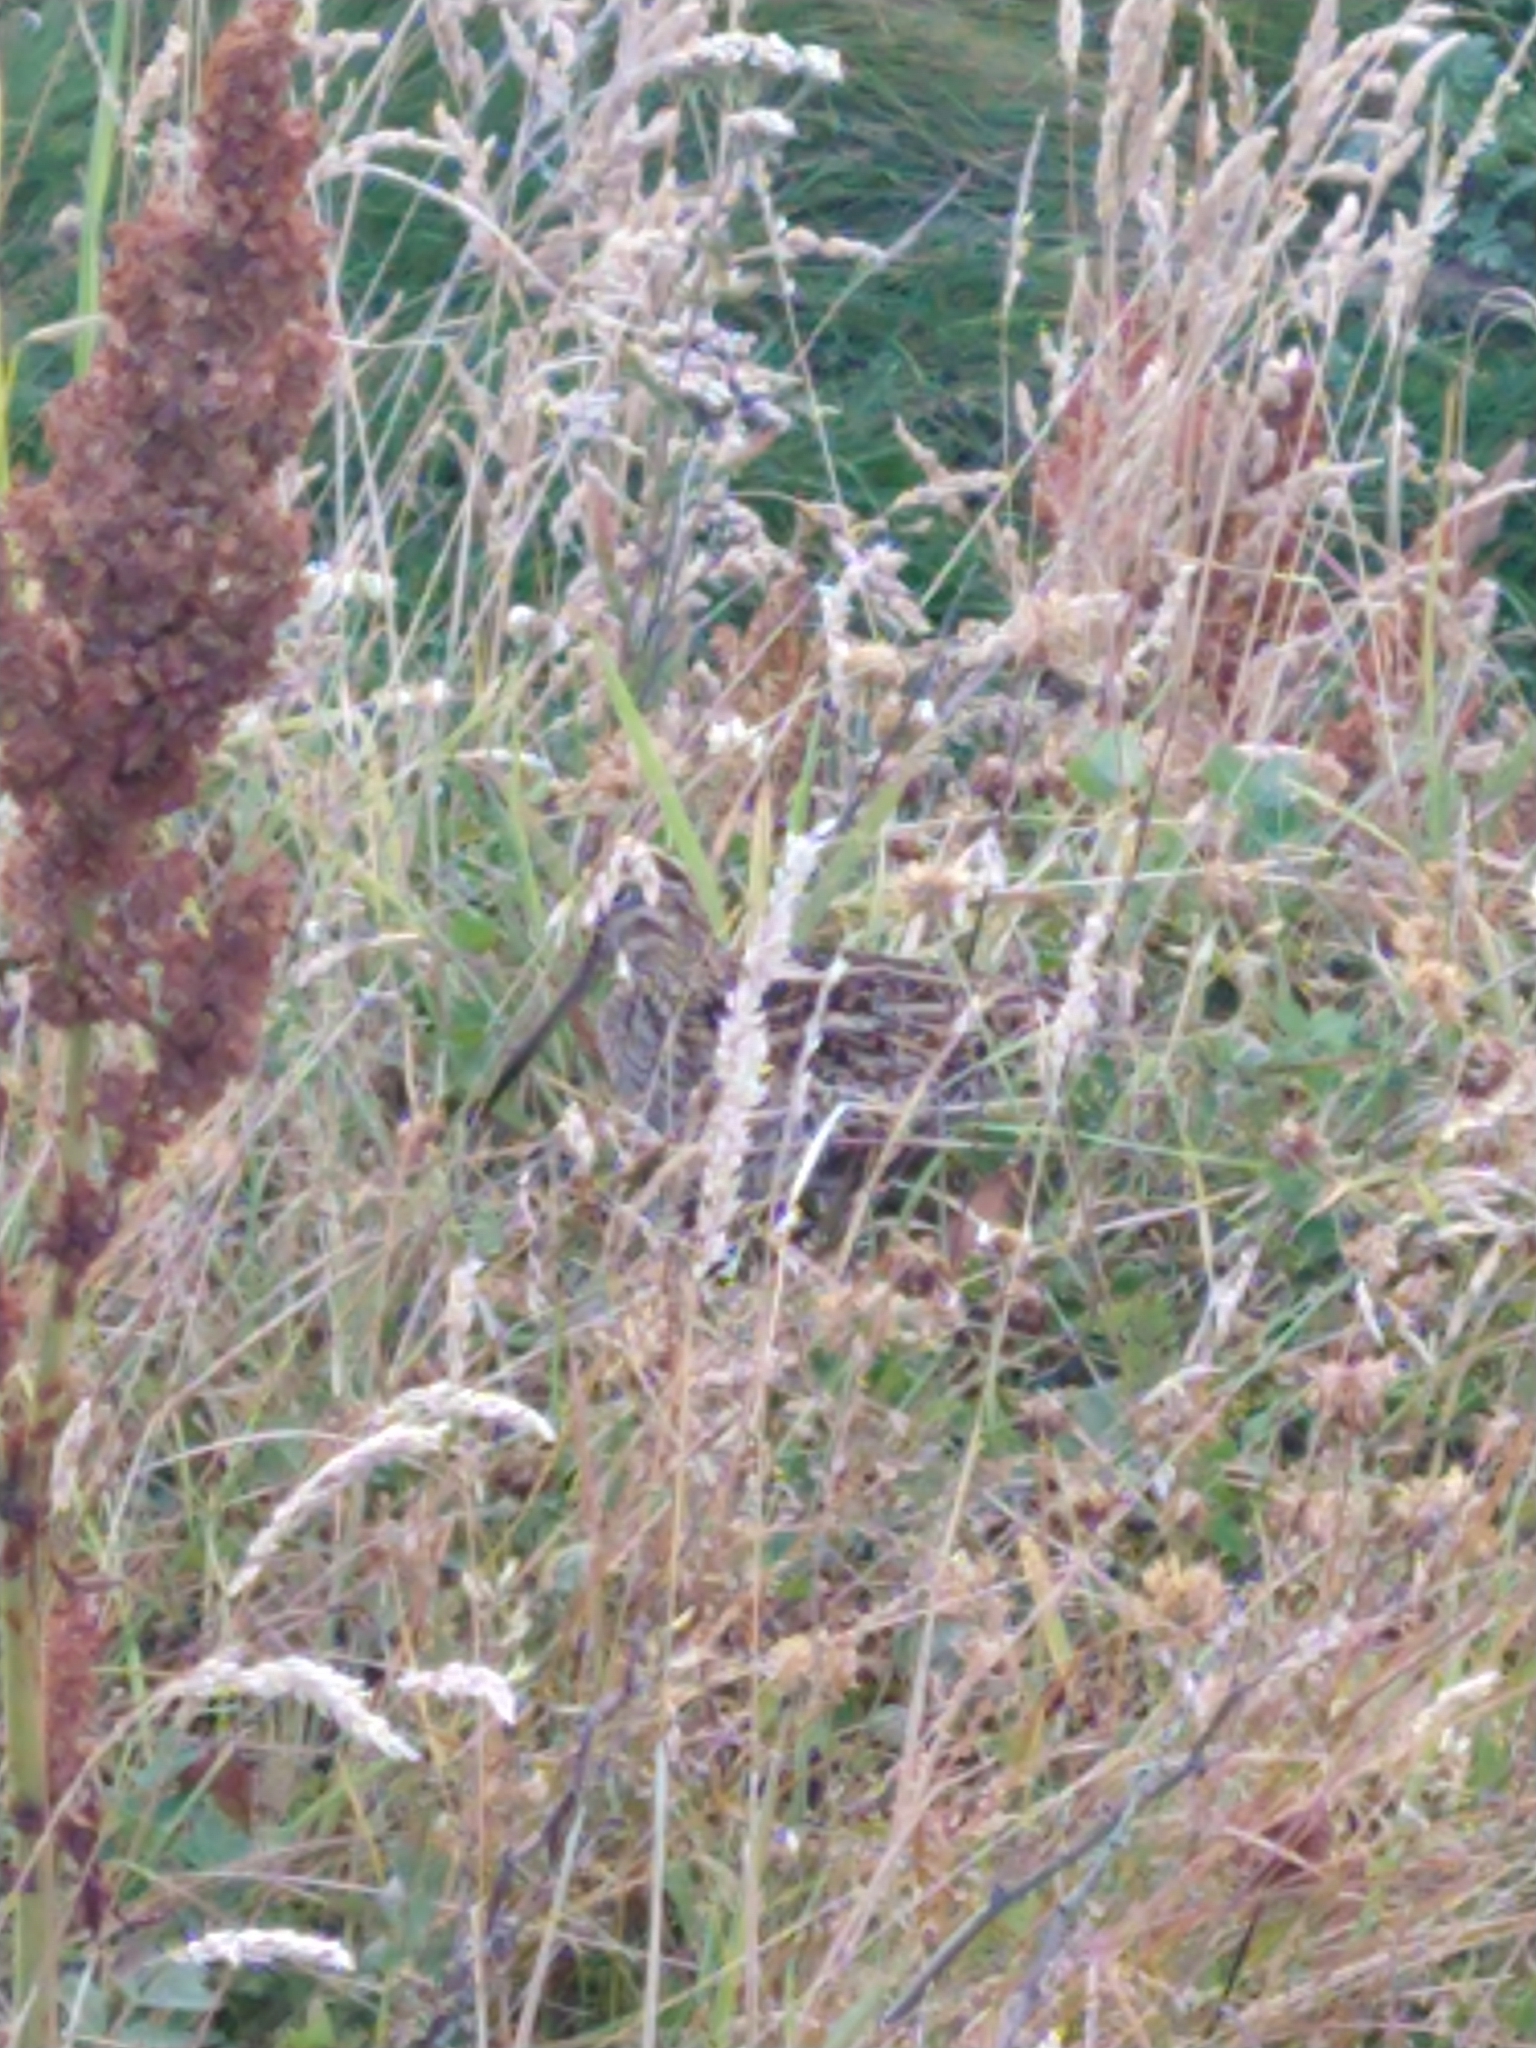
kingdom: Animalia
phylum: Chordata
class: Aves
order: Charadriiformes
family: Scolopacidae
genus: Gallinago
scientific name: Gallinago magellanica
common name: Magellanic snipe
